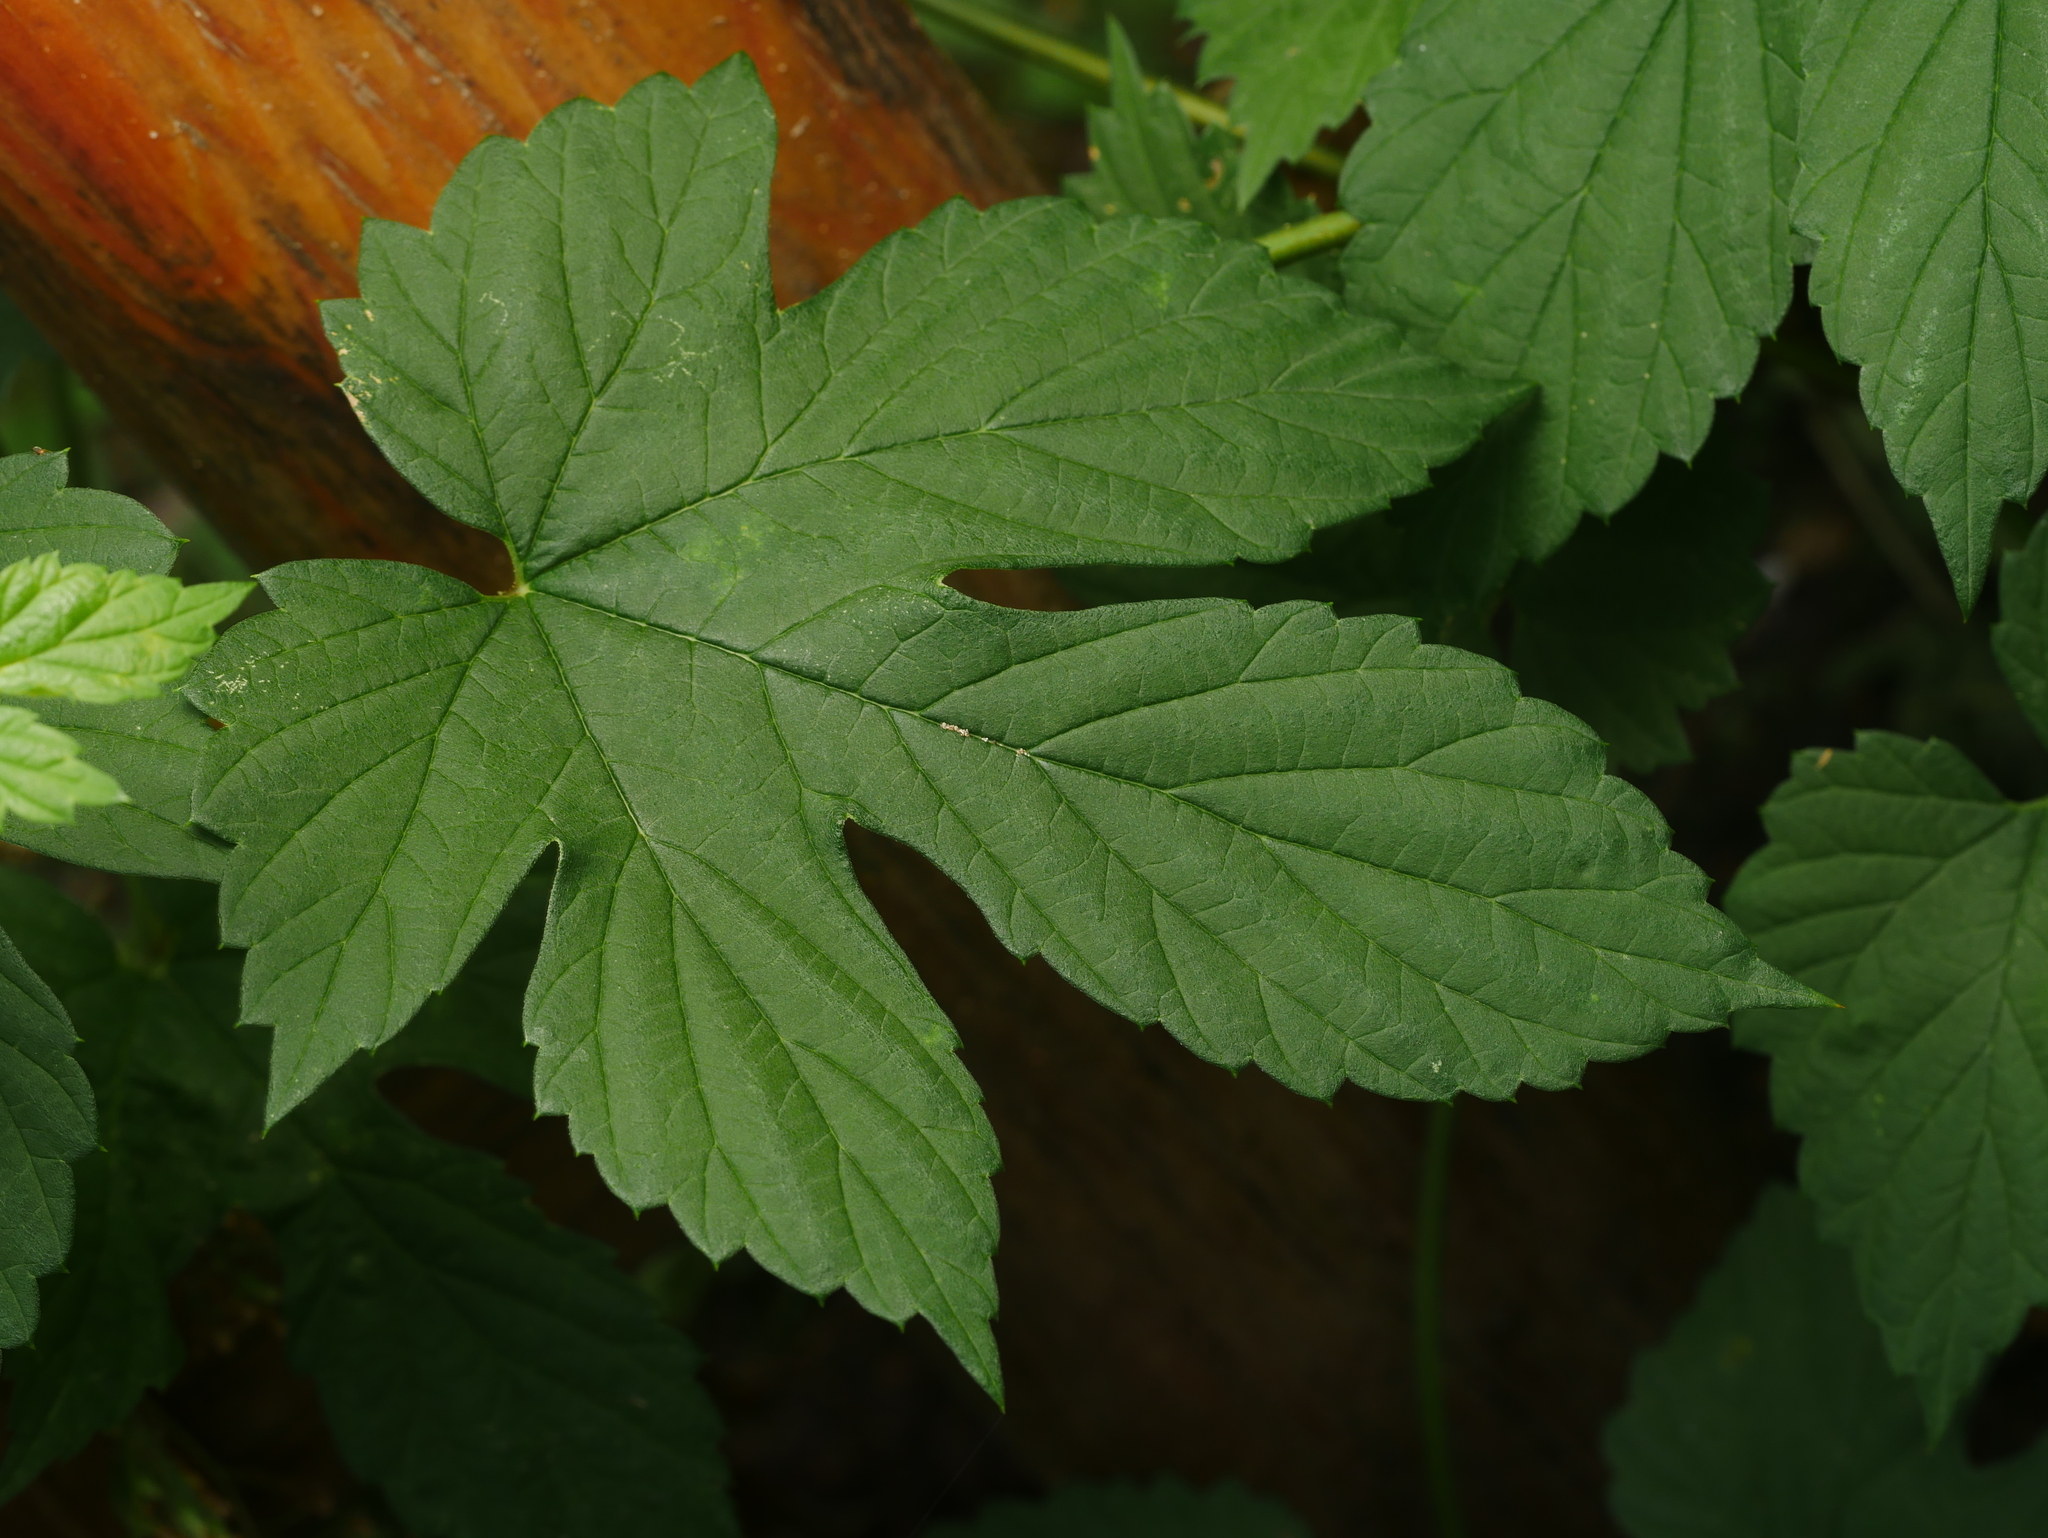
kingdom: Plantae
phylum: Tracheophyta
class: Magnoliopsida
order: Rosales
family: Cannabaceae
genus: Humulus
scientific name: Humulus lupulus
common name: Hop
